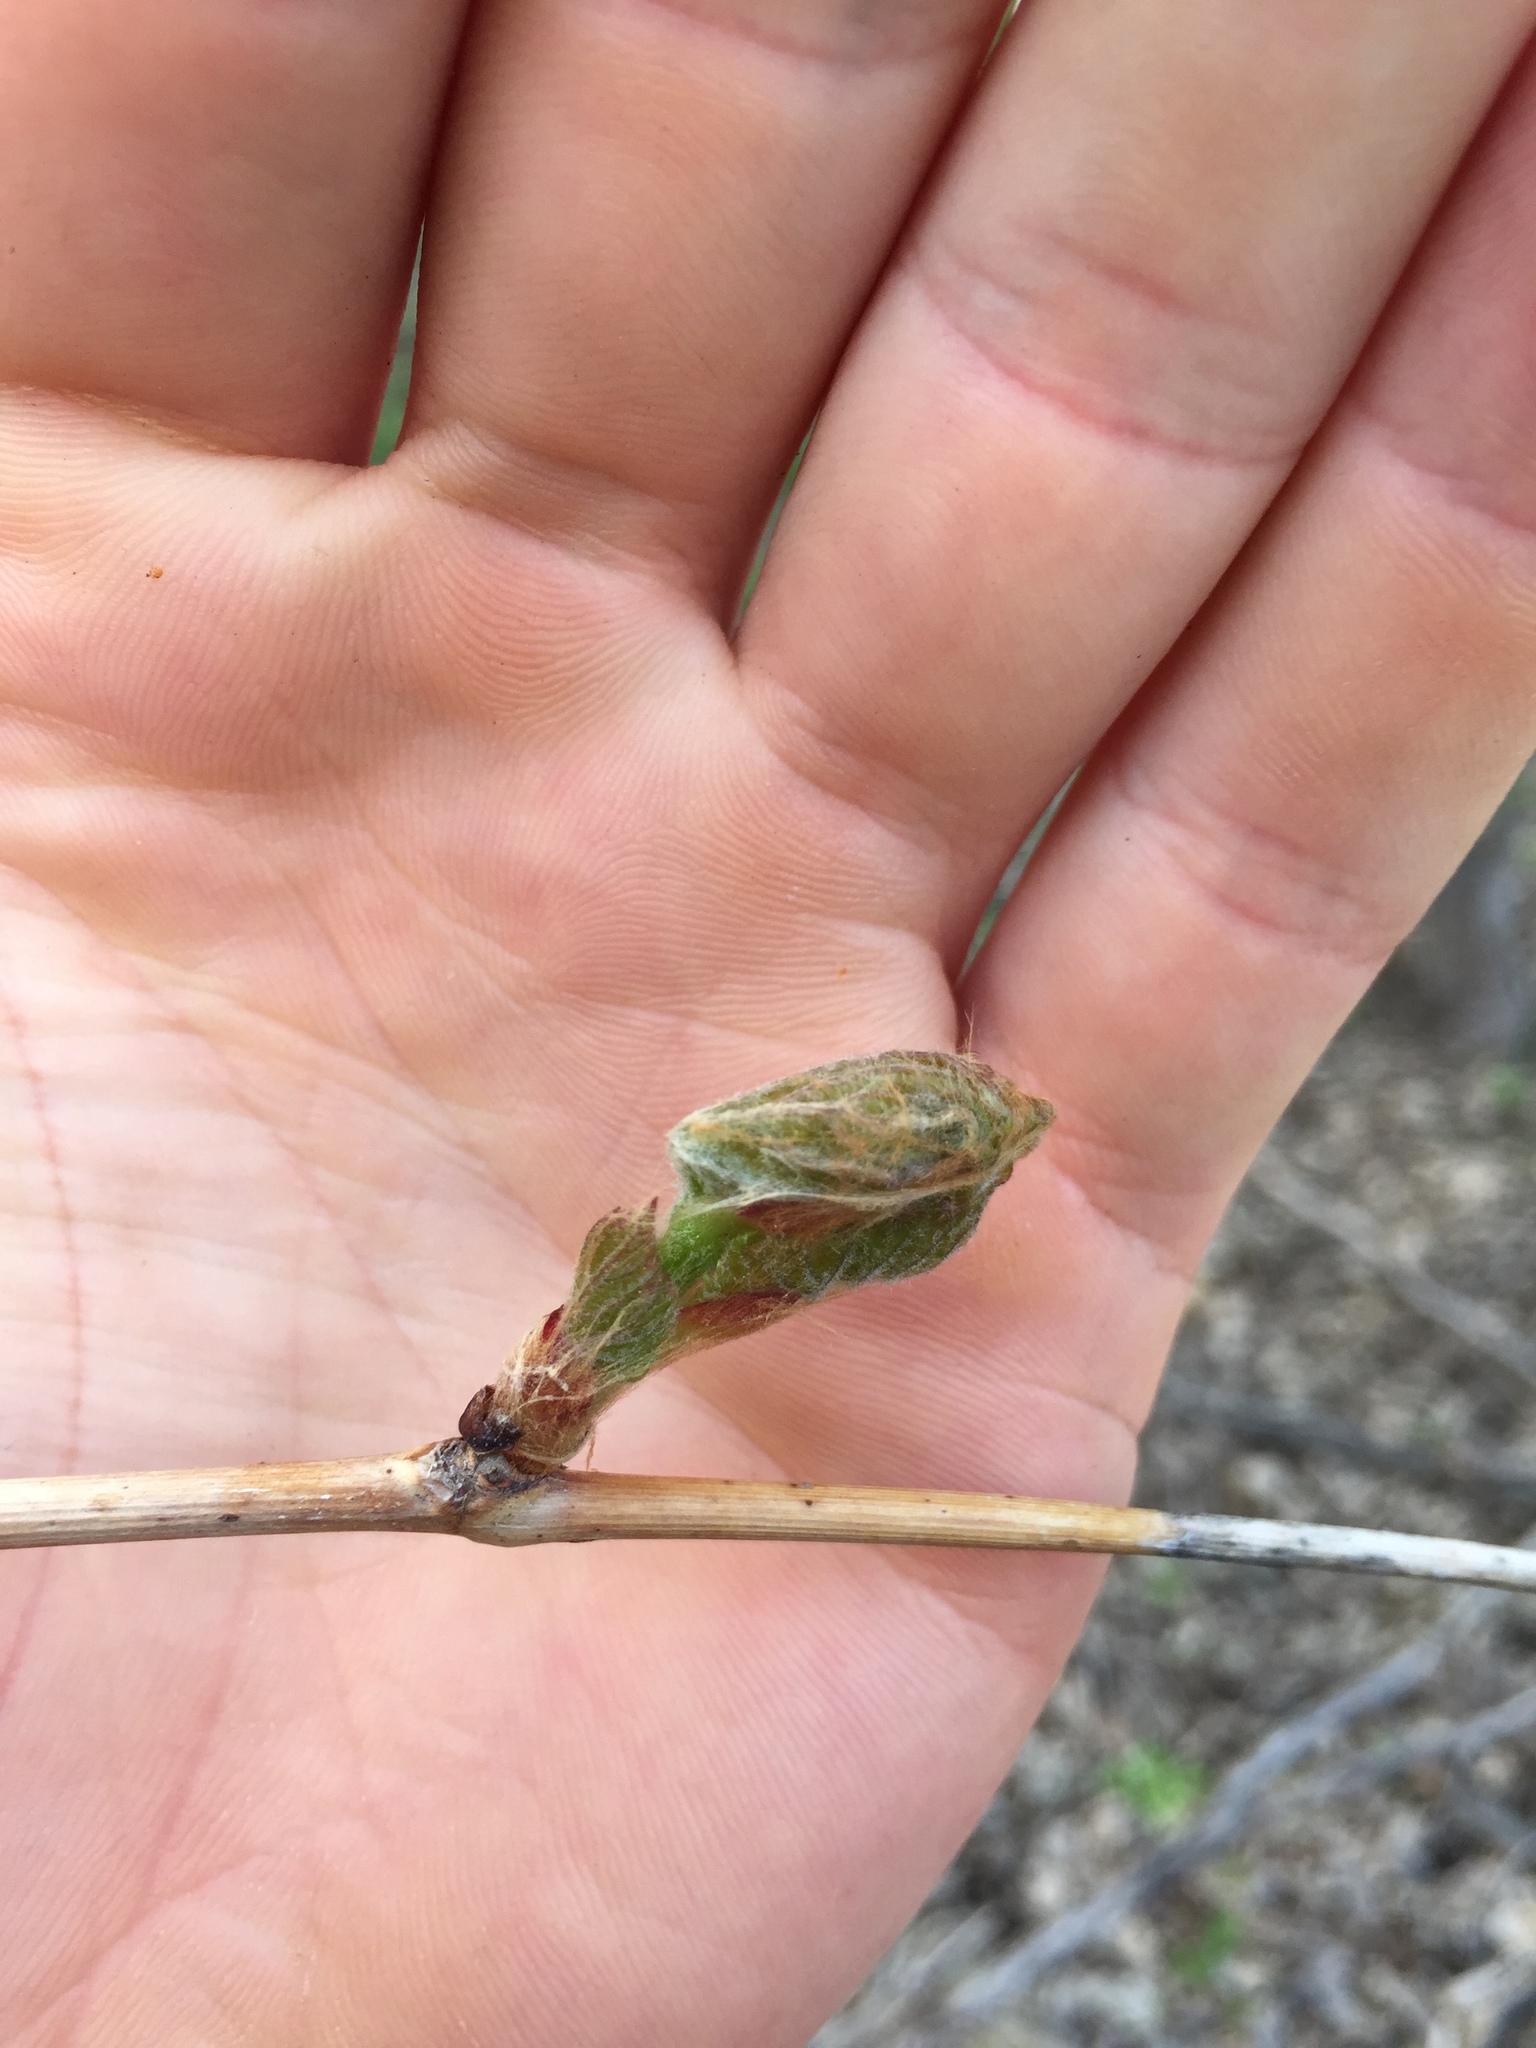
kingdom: Plantae
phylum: Tracheophyta
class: Magnoliopsida
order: Vitales
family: Vitaceae
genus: Vitis
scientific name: Vitis riparia
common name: Frost grape
